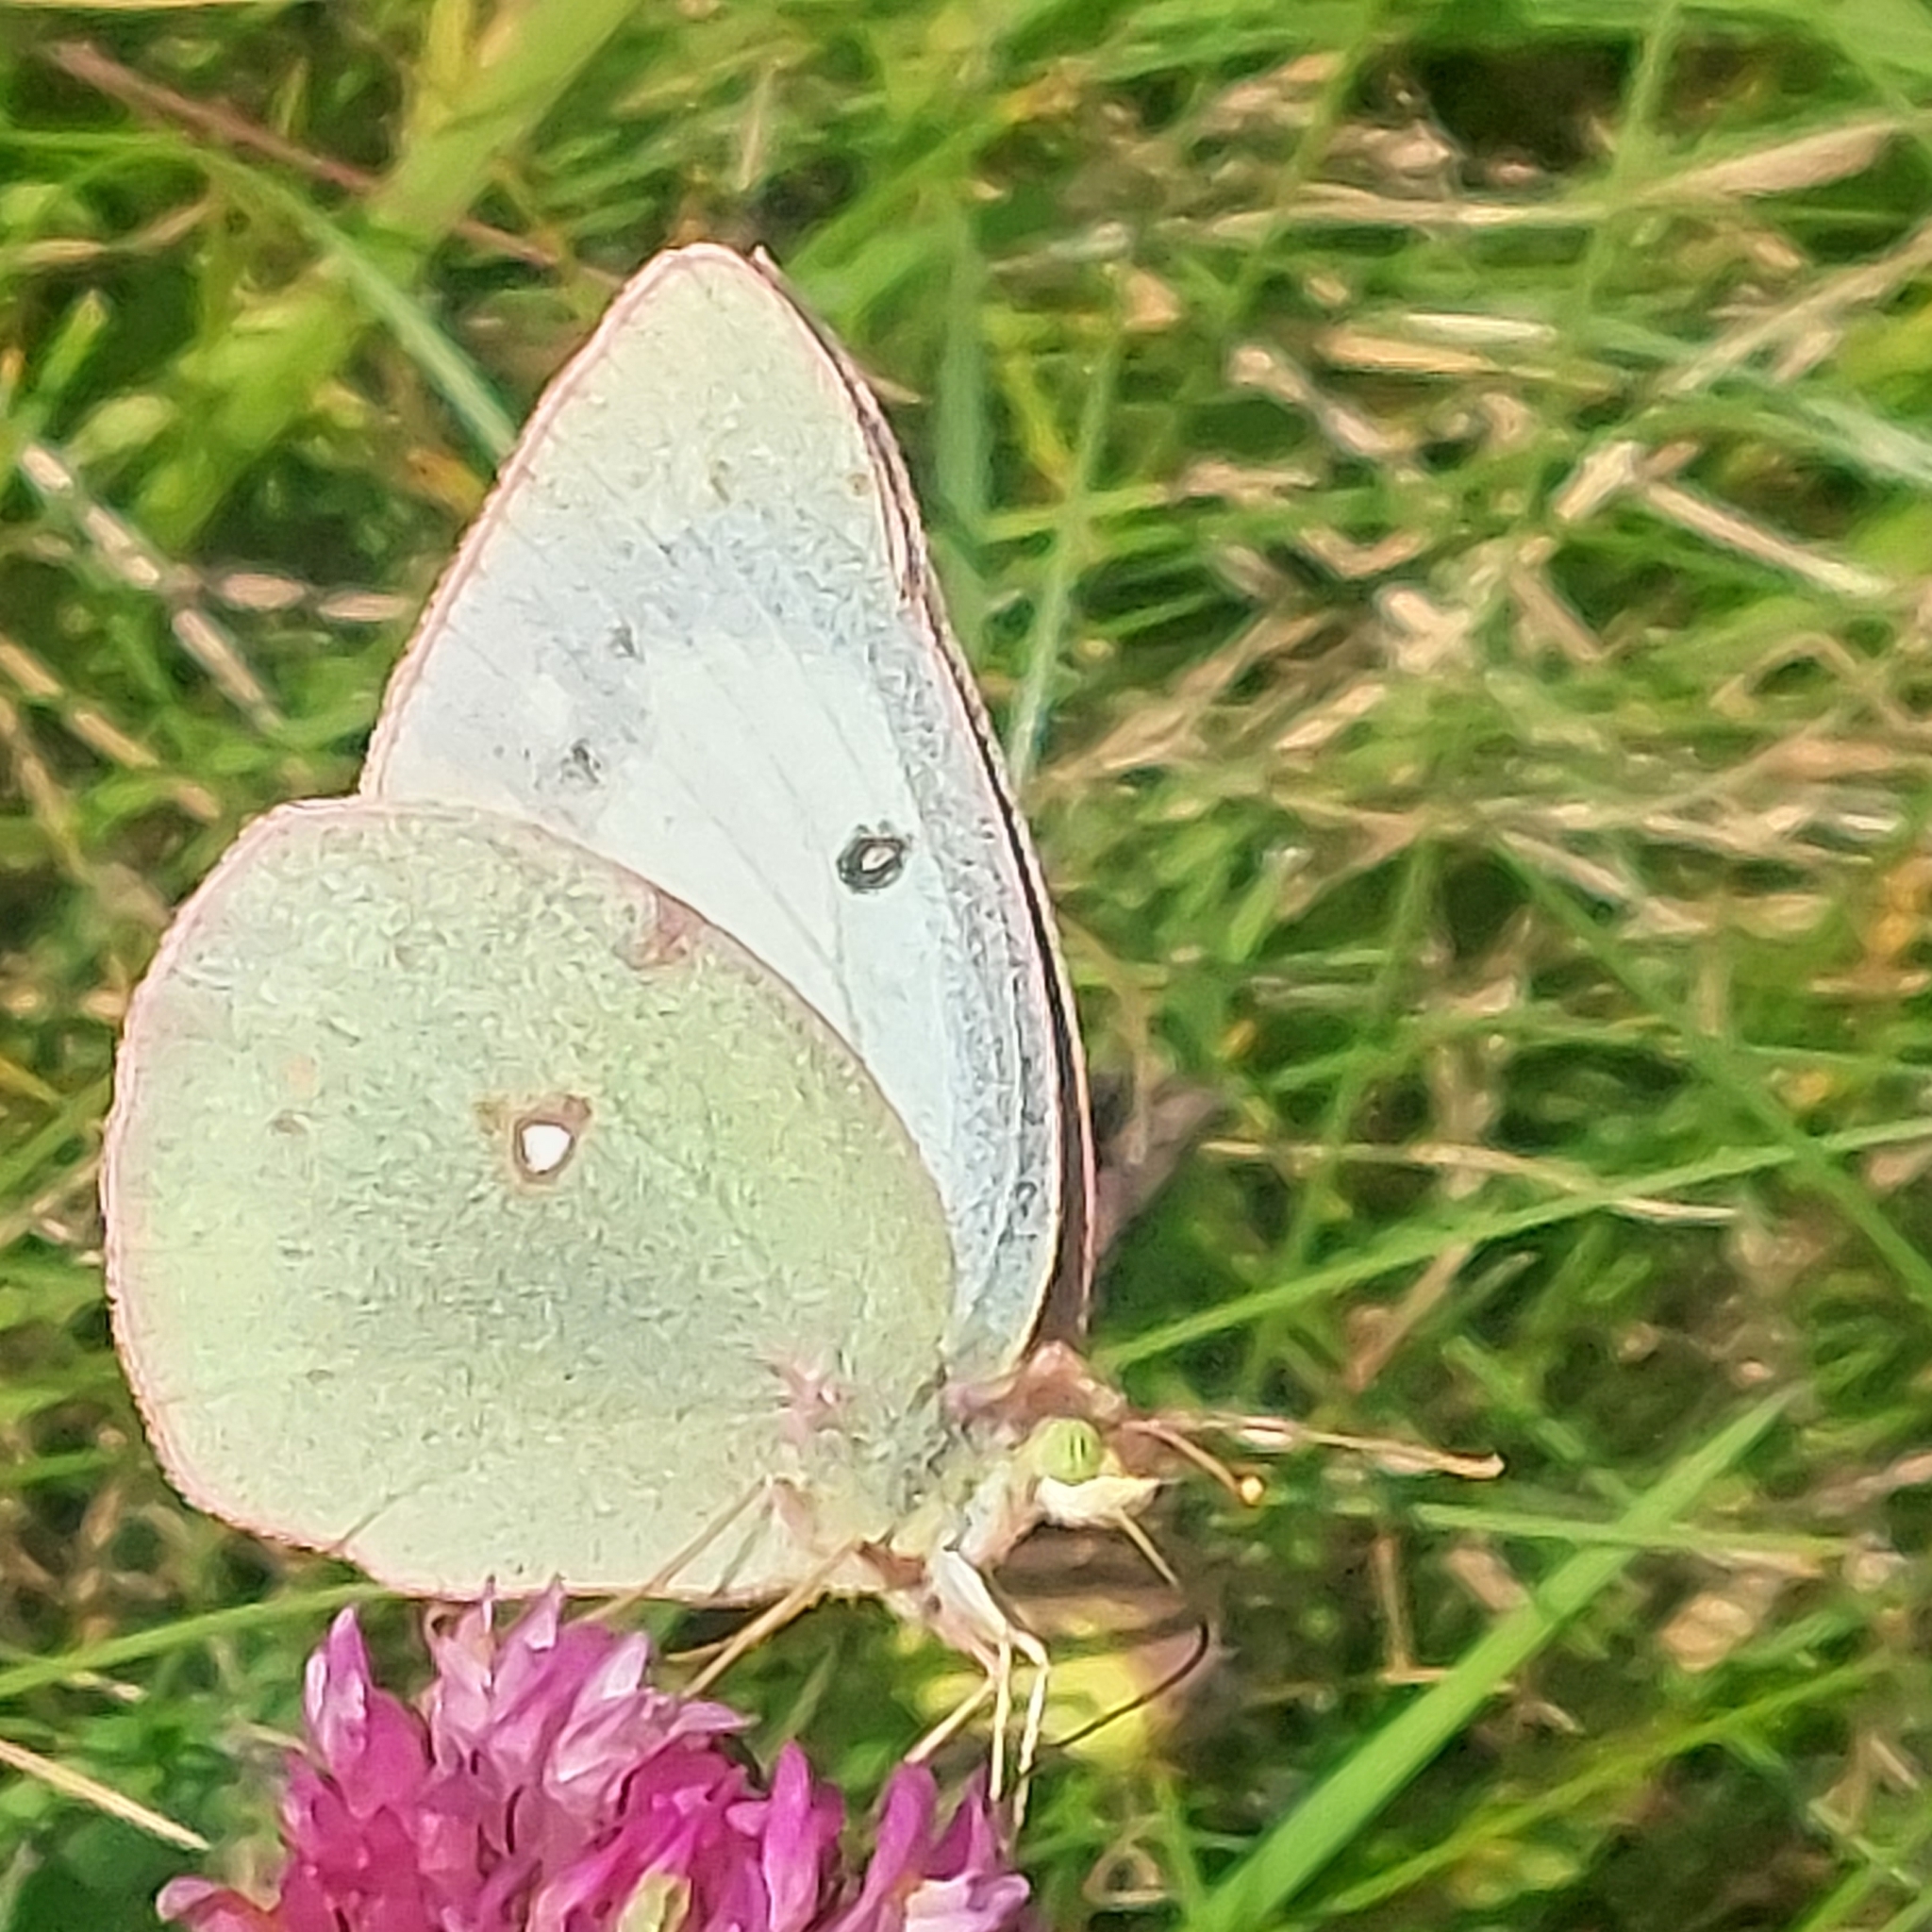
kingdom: Animalia
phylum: Arthropoda
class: Insecta
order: Lepidoptera
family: Pieridae
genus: Colias
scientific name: Colias philodice
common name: Clouded sulphur
